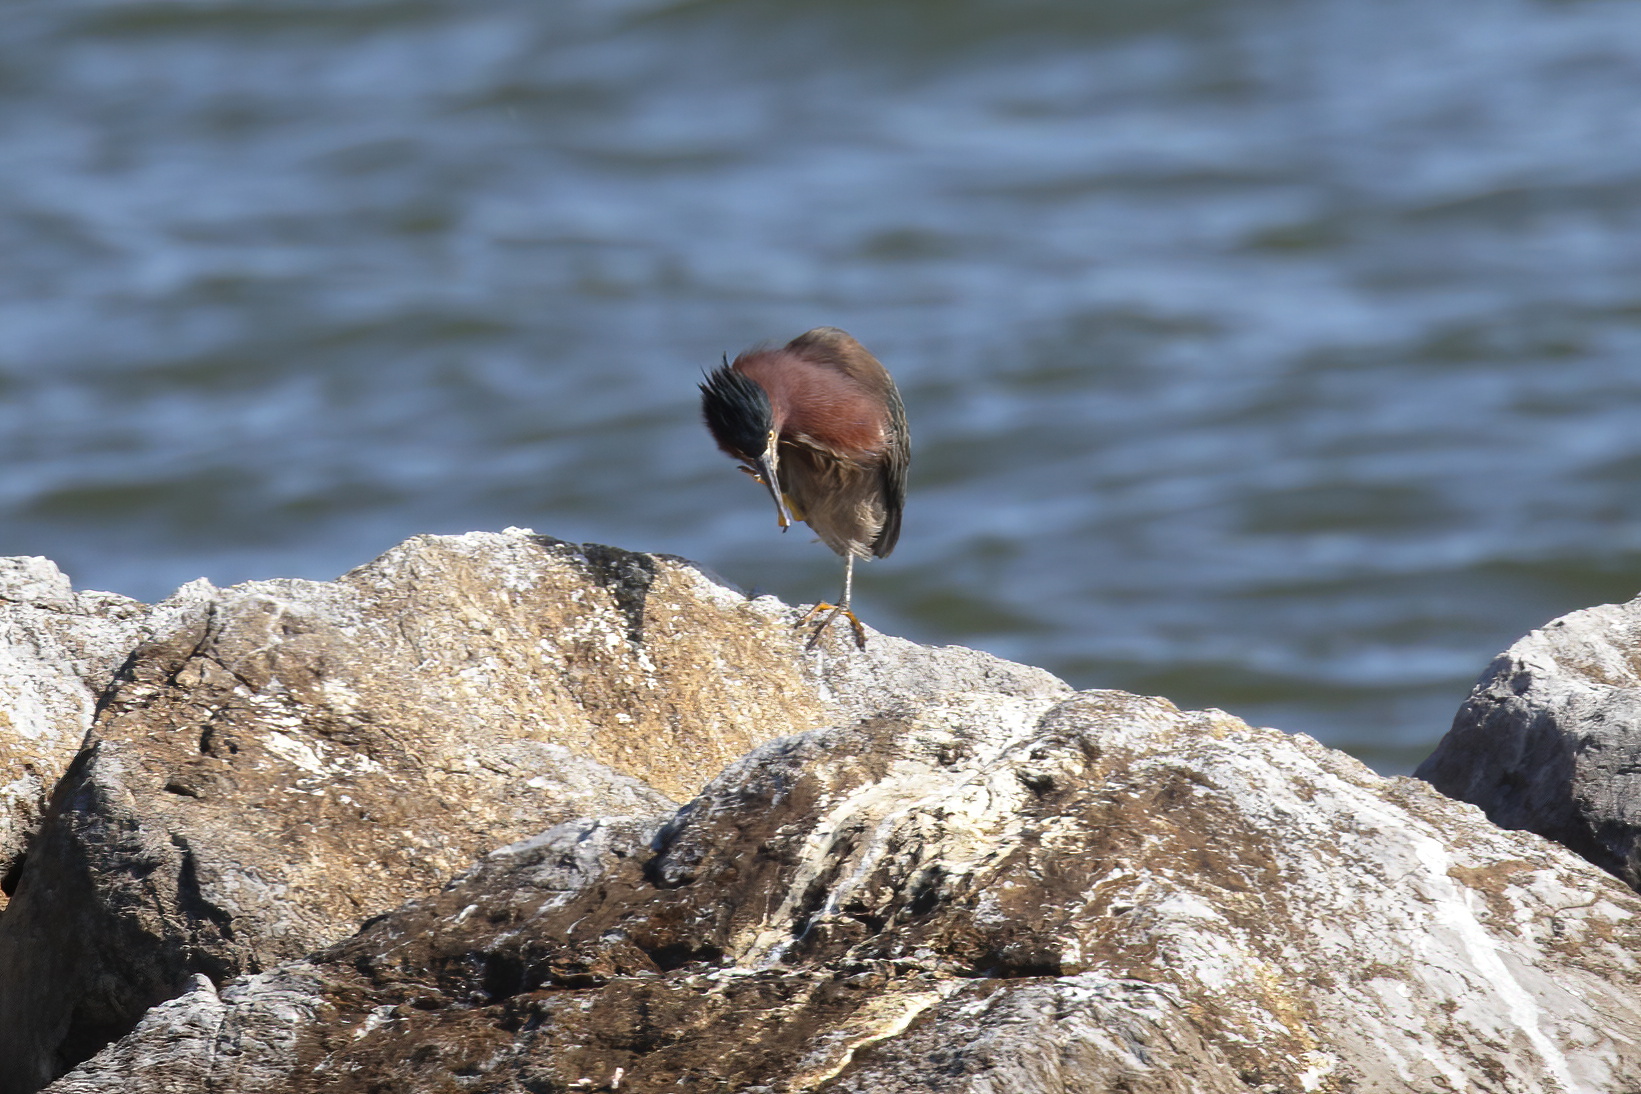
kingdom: Animalia
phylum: Chordata
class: Aves
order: Pelecaniformes
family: Ardeidae
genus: Butorides
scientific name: Butorides virescens
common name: Green heron
